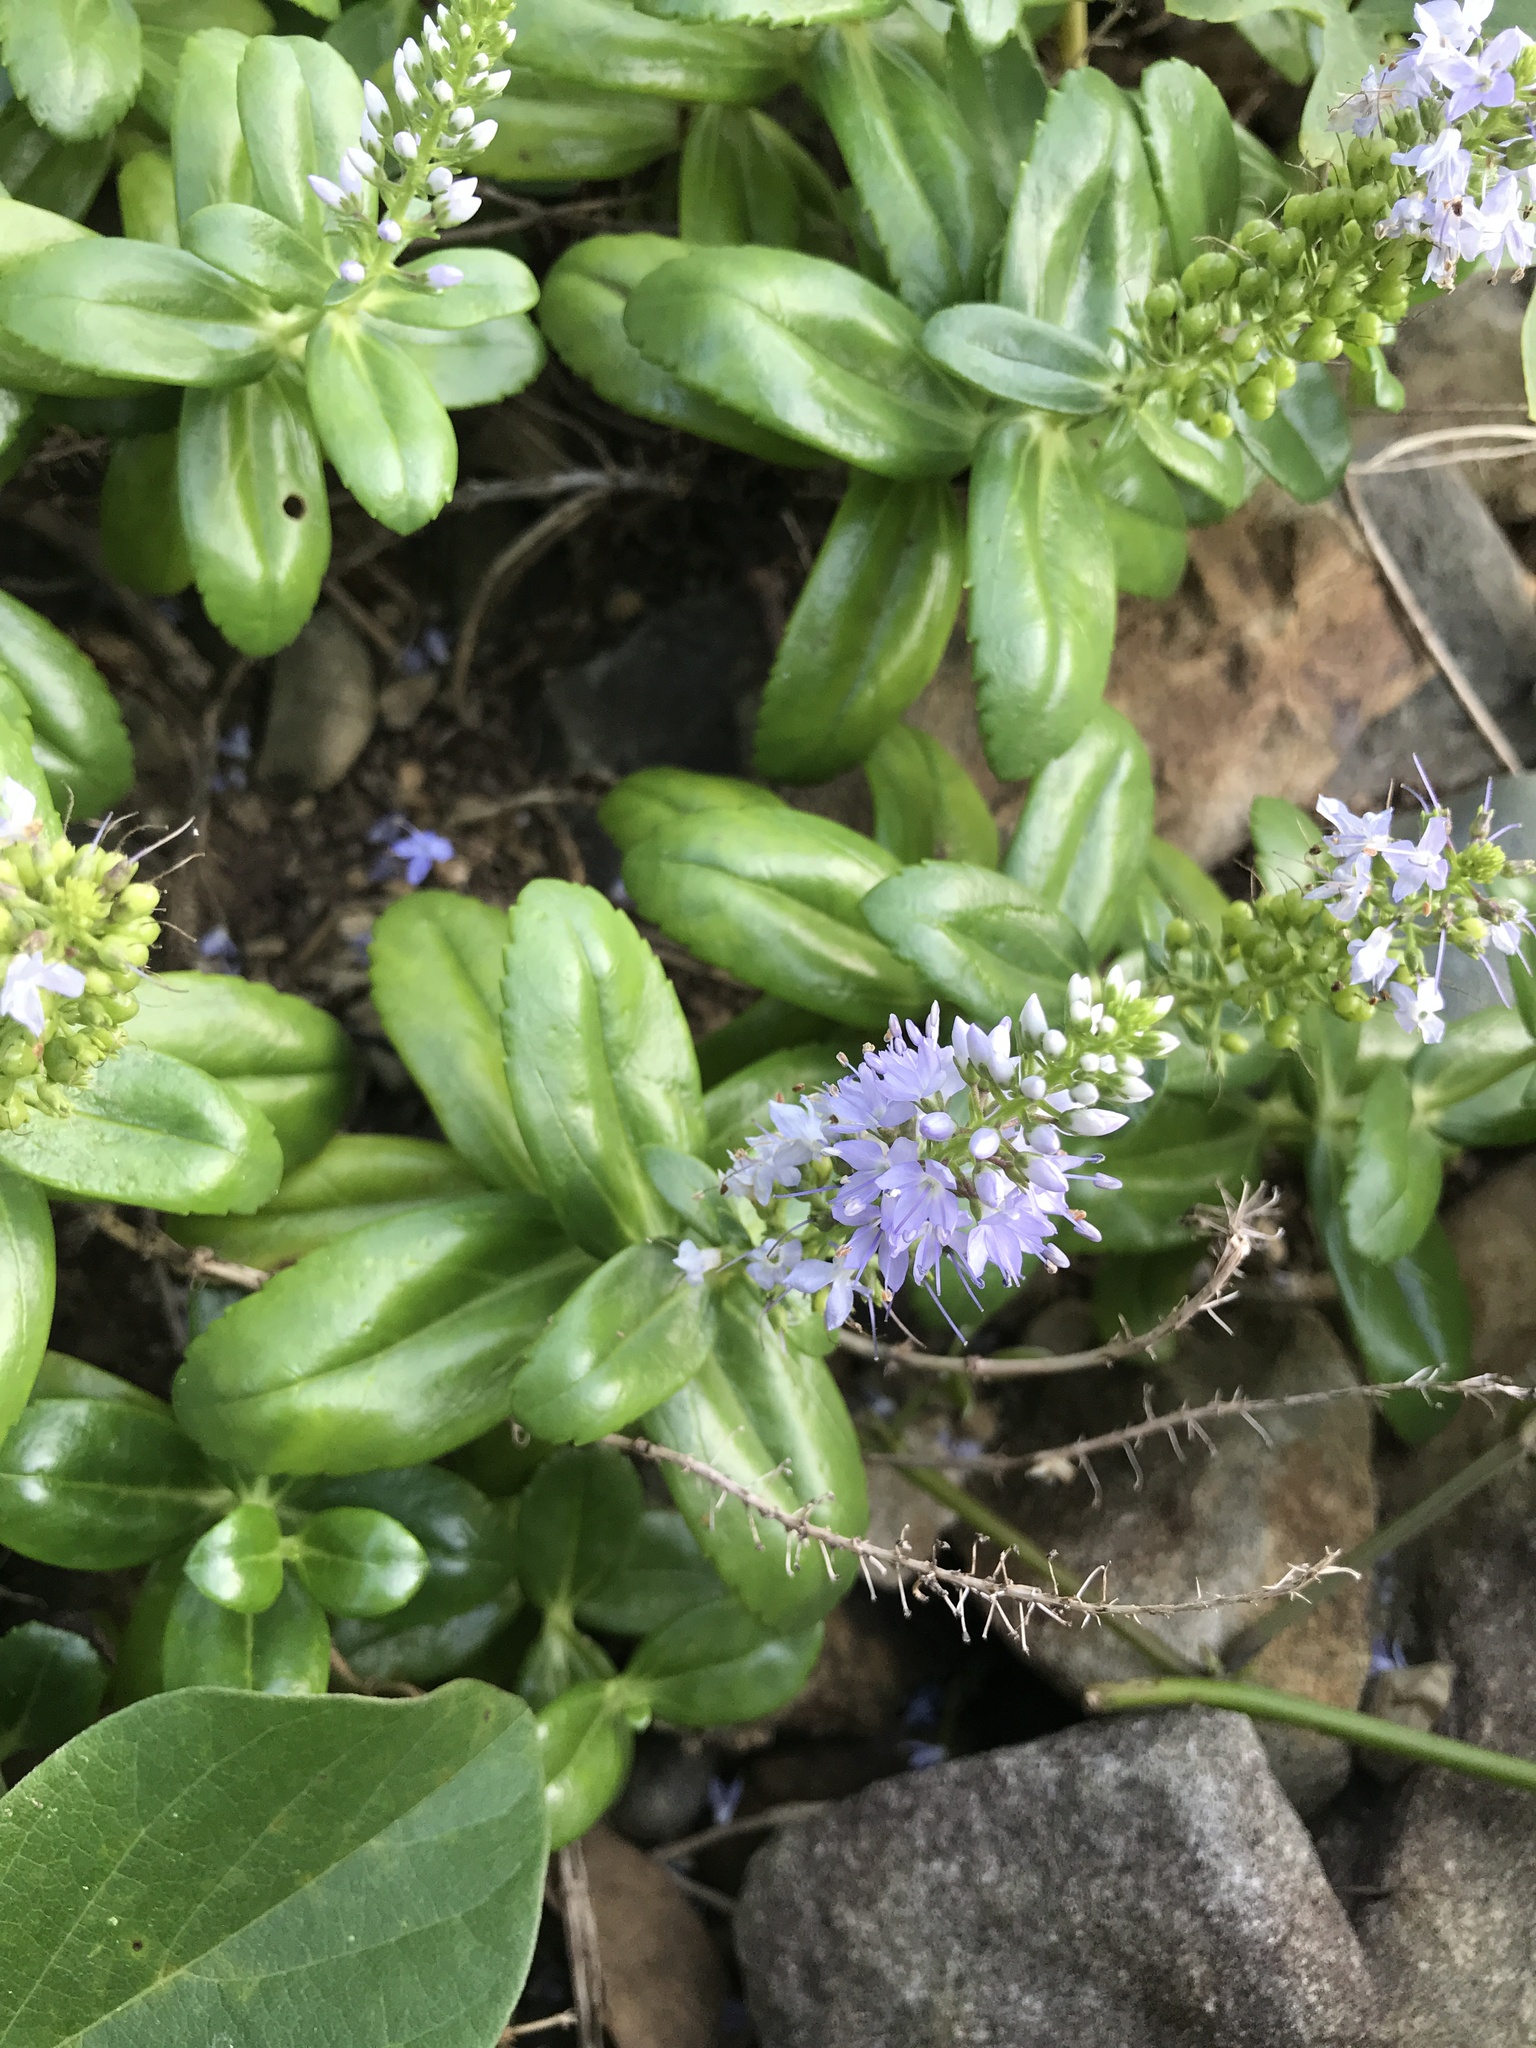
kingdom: Plantae
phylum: Tracheophyta
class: Magnoliopsida
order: Lamiales
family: Plantaginaceae
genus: Veronica
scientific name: Veronica sieboldiana
